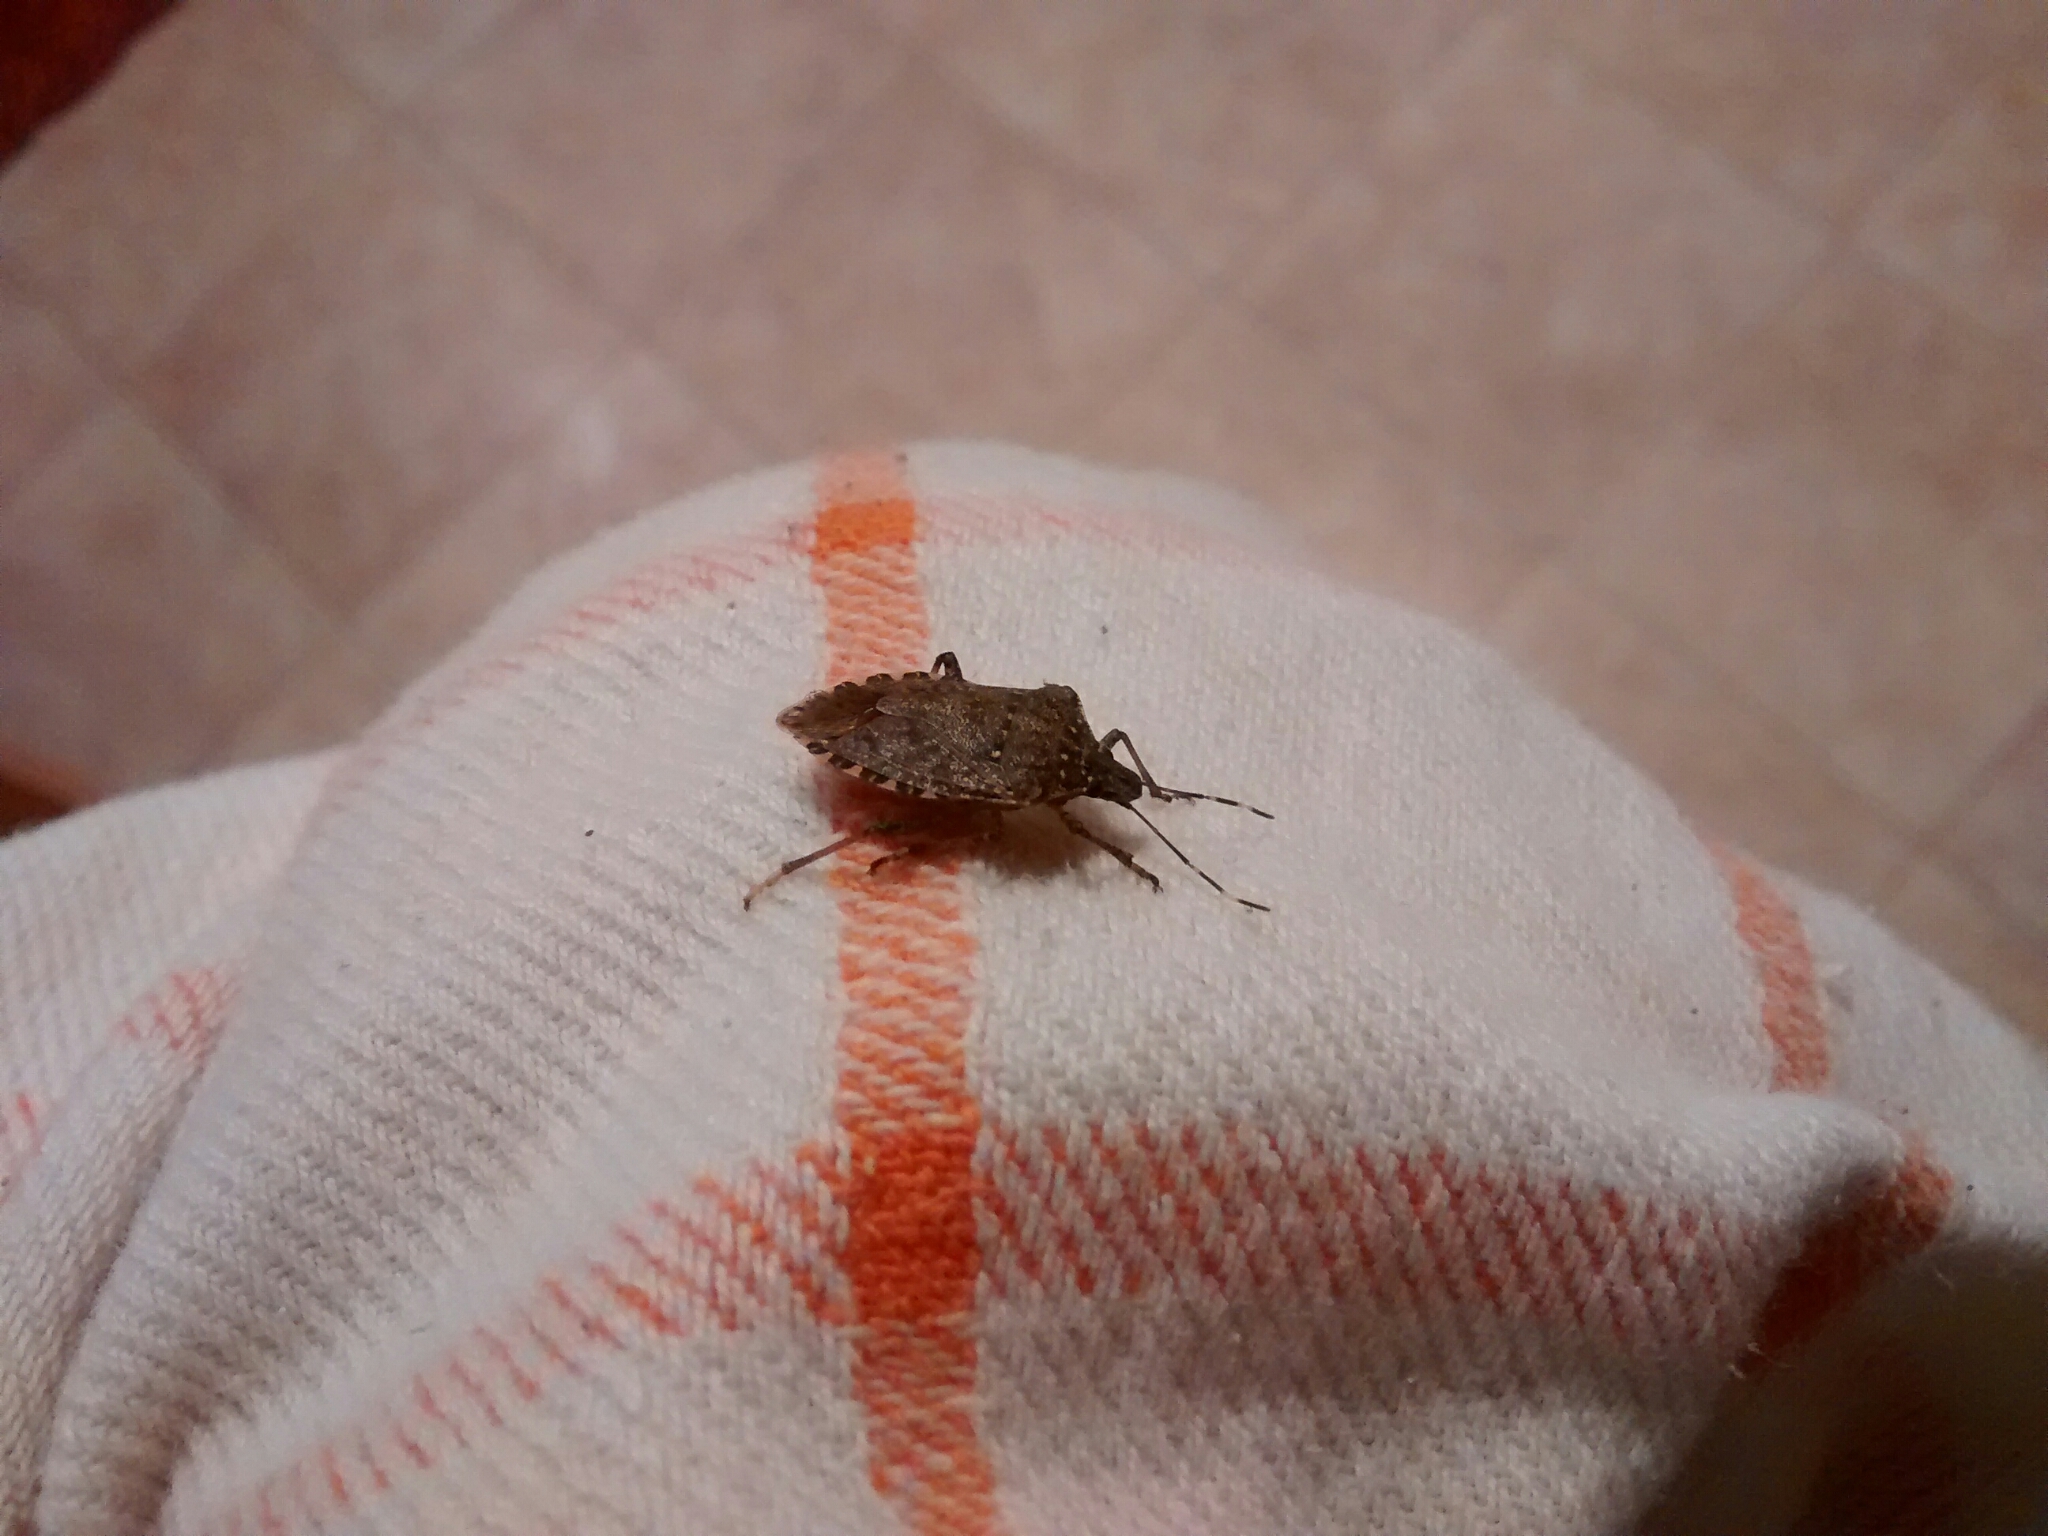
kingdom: Animalia
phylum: Arthropoda
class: Insecta
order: Hemiptera
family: Pentatomidae
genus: Halyomorpha
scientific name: Halyomorpha halys
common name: Brown marmorated stink bug
